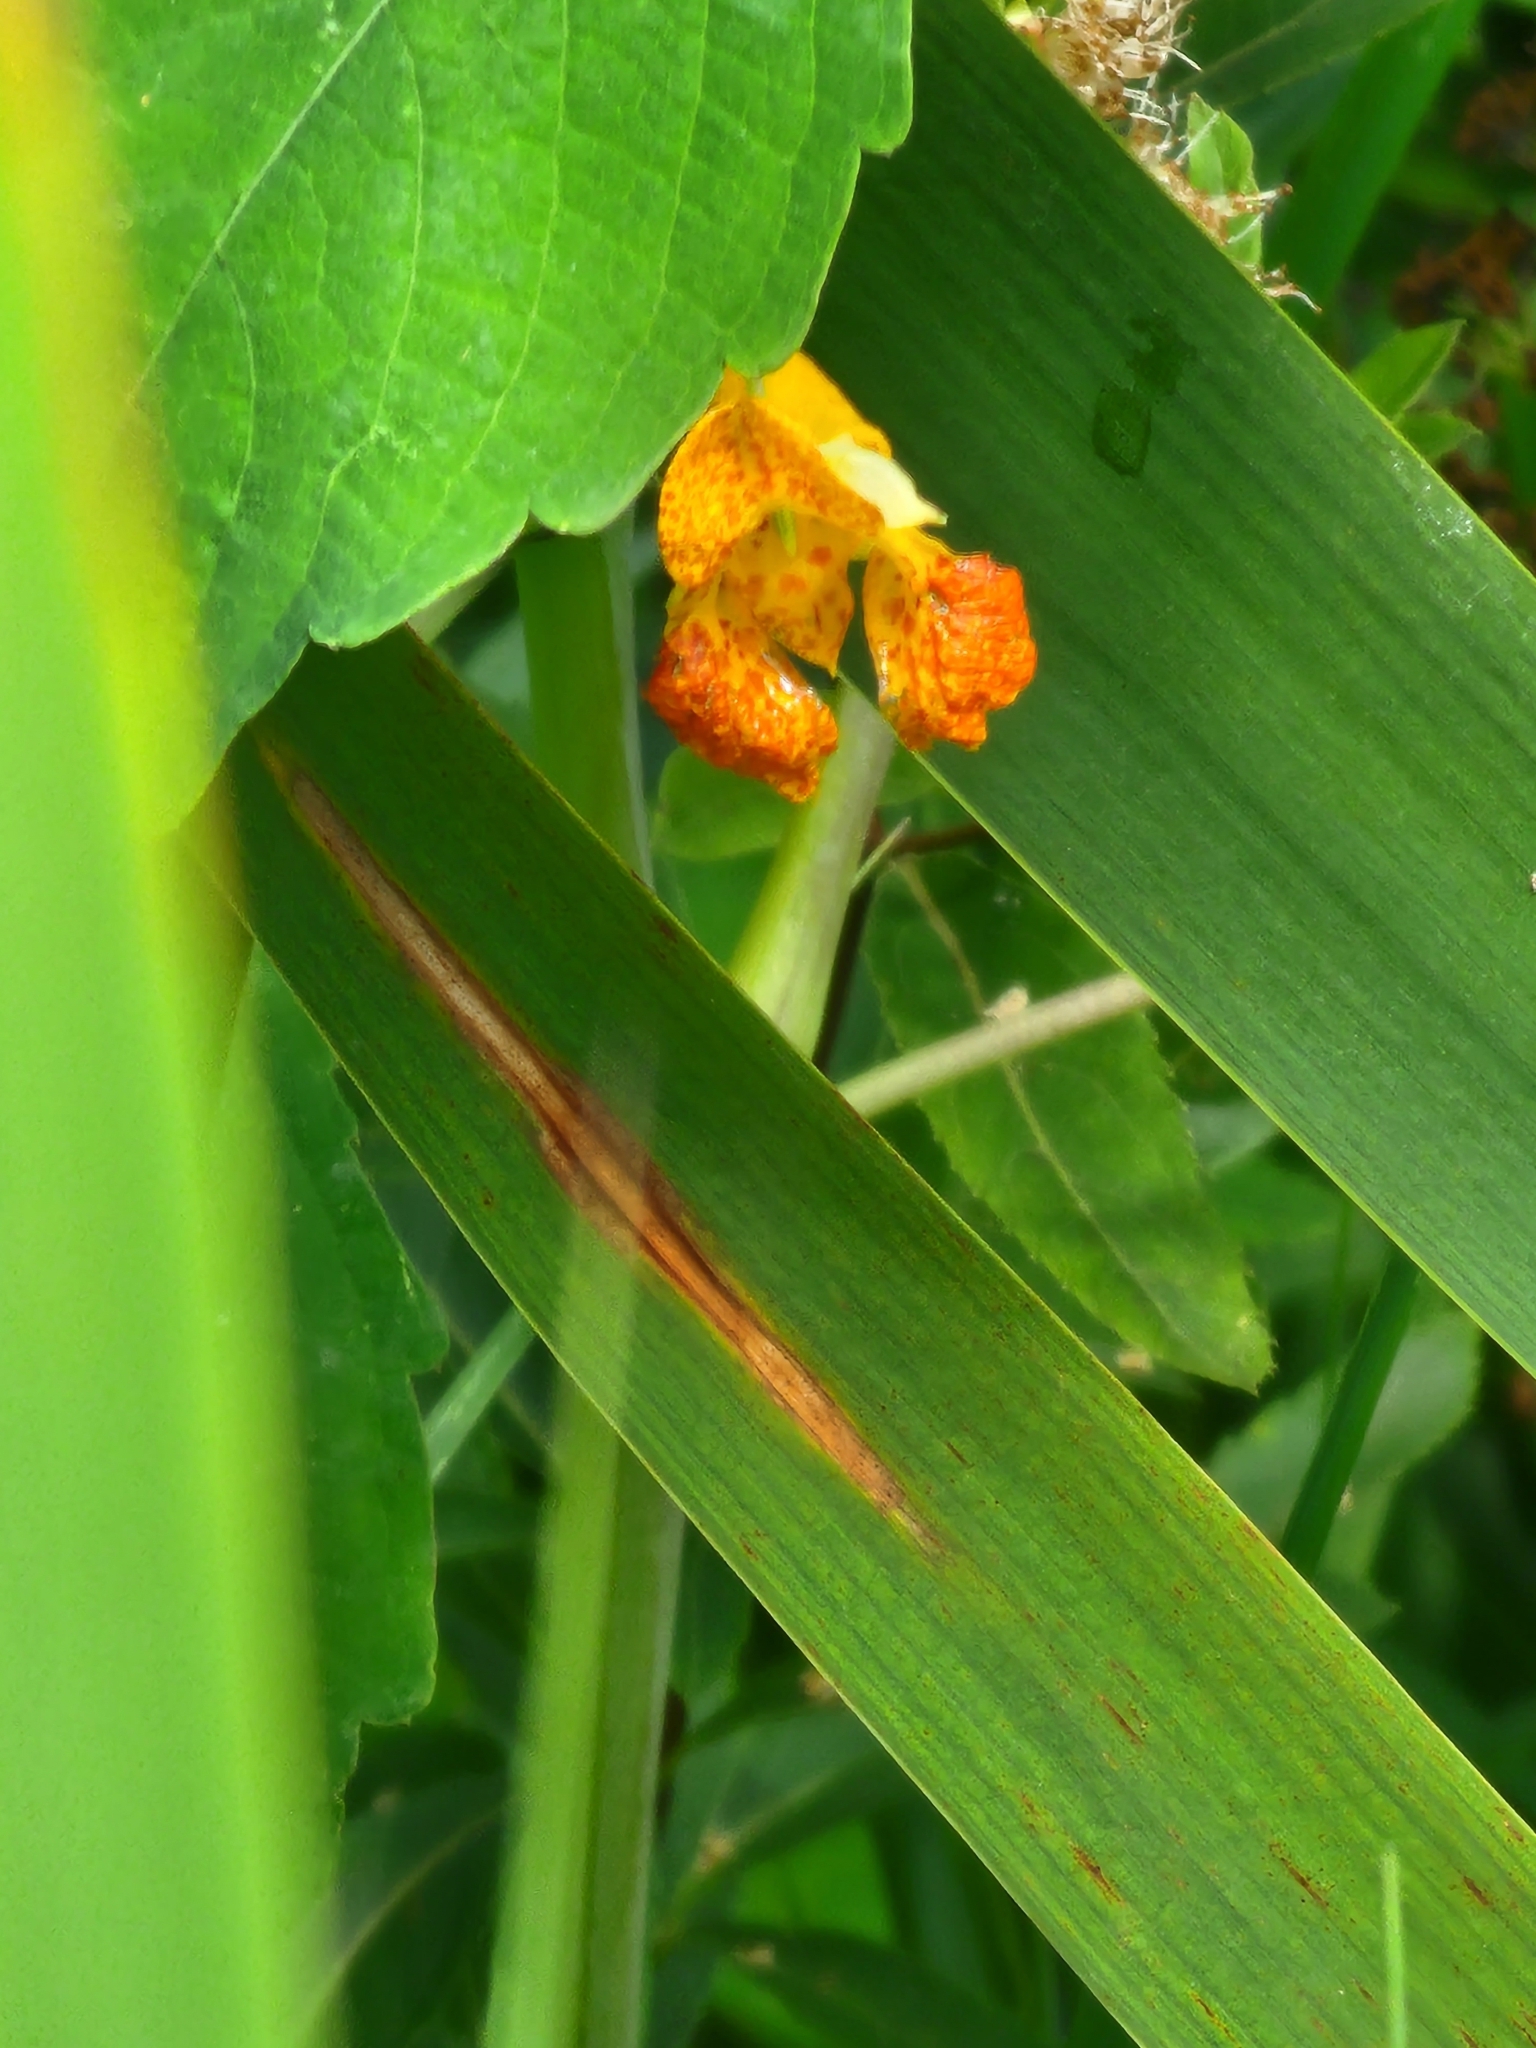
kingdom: Plantae
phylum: Tracheophyta
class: Magnoliopsida
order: Ericales
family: Balsaminaceae
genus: Impatiens
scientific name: Impatiens capensis
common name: Orange balsam
